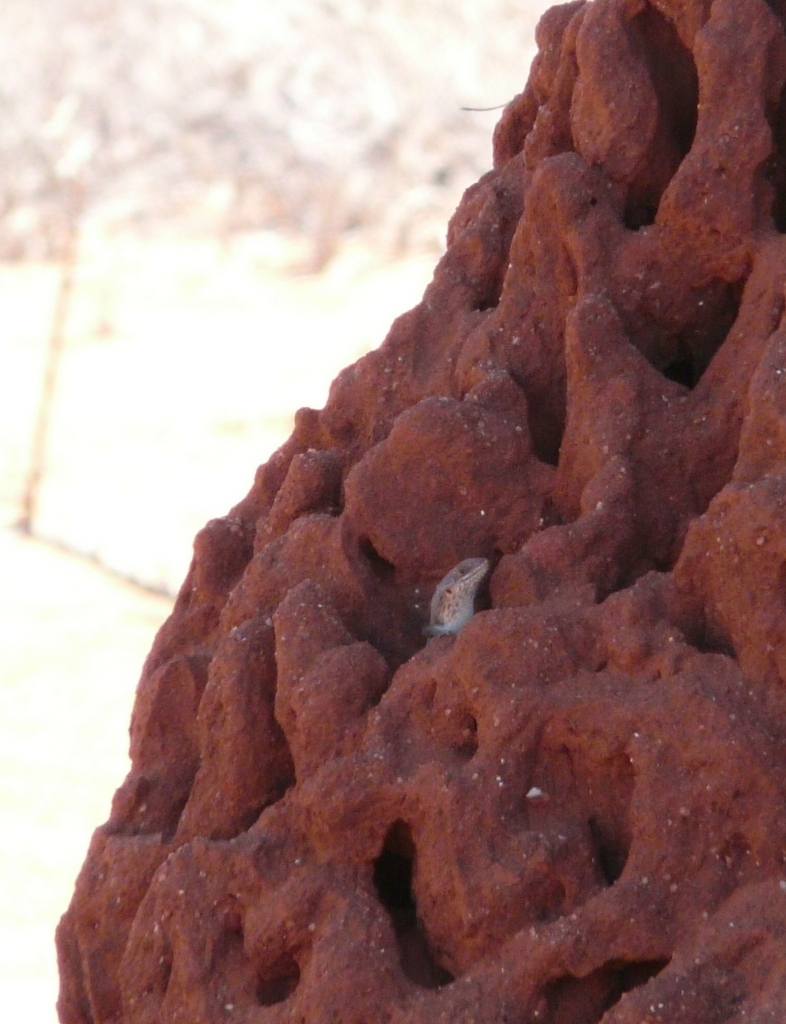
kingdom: Animalia
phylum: Chordata
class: Squamata
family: Scincidae
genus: Trachylepis
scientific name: Trachylepis brevicollis
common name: Short-necked skink
